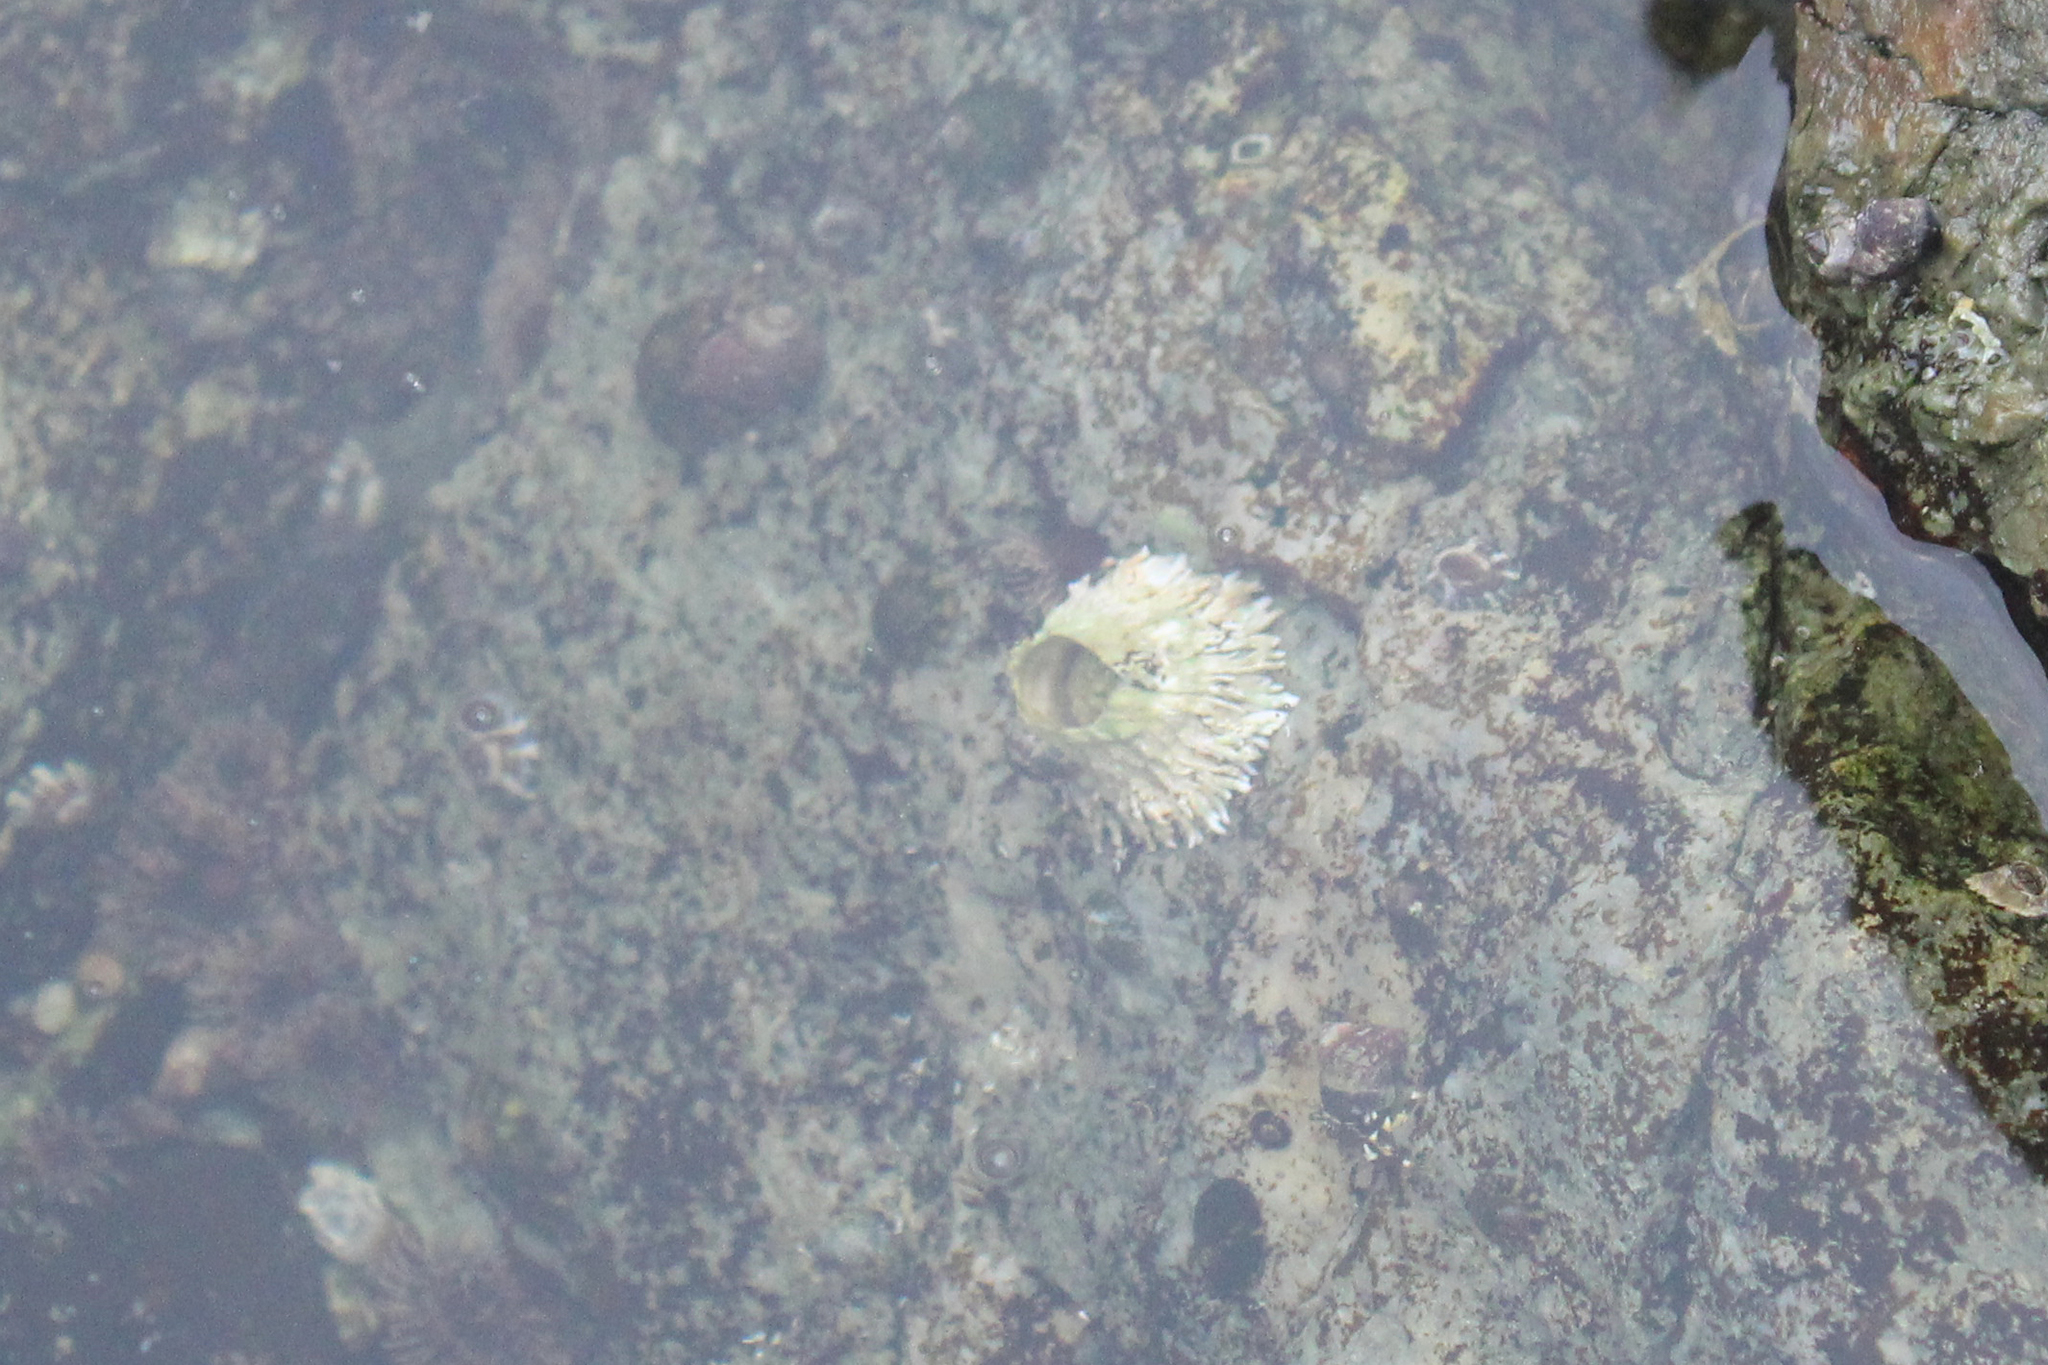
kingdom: Animalia
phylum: Arthropoda
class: Maxillopoda
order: Sessilia
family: Archaeobalanidae
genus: Semibalanus
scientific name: Semibalanus cariosus
